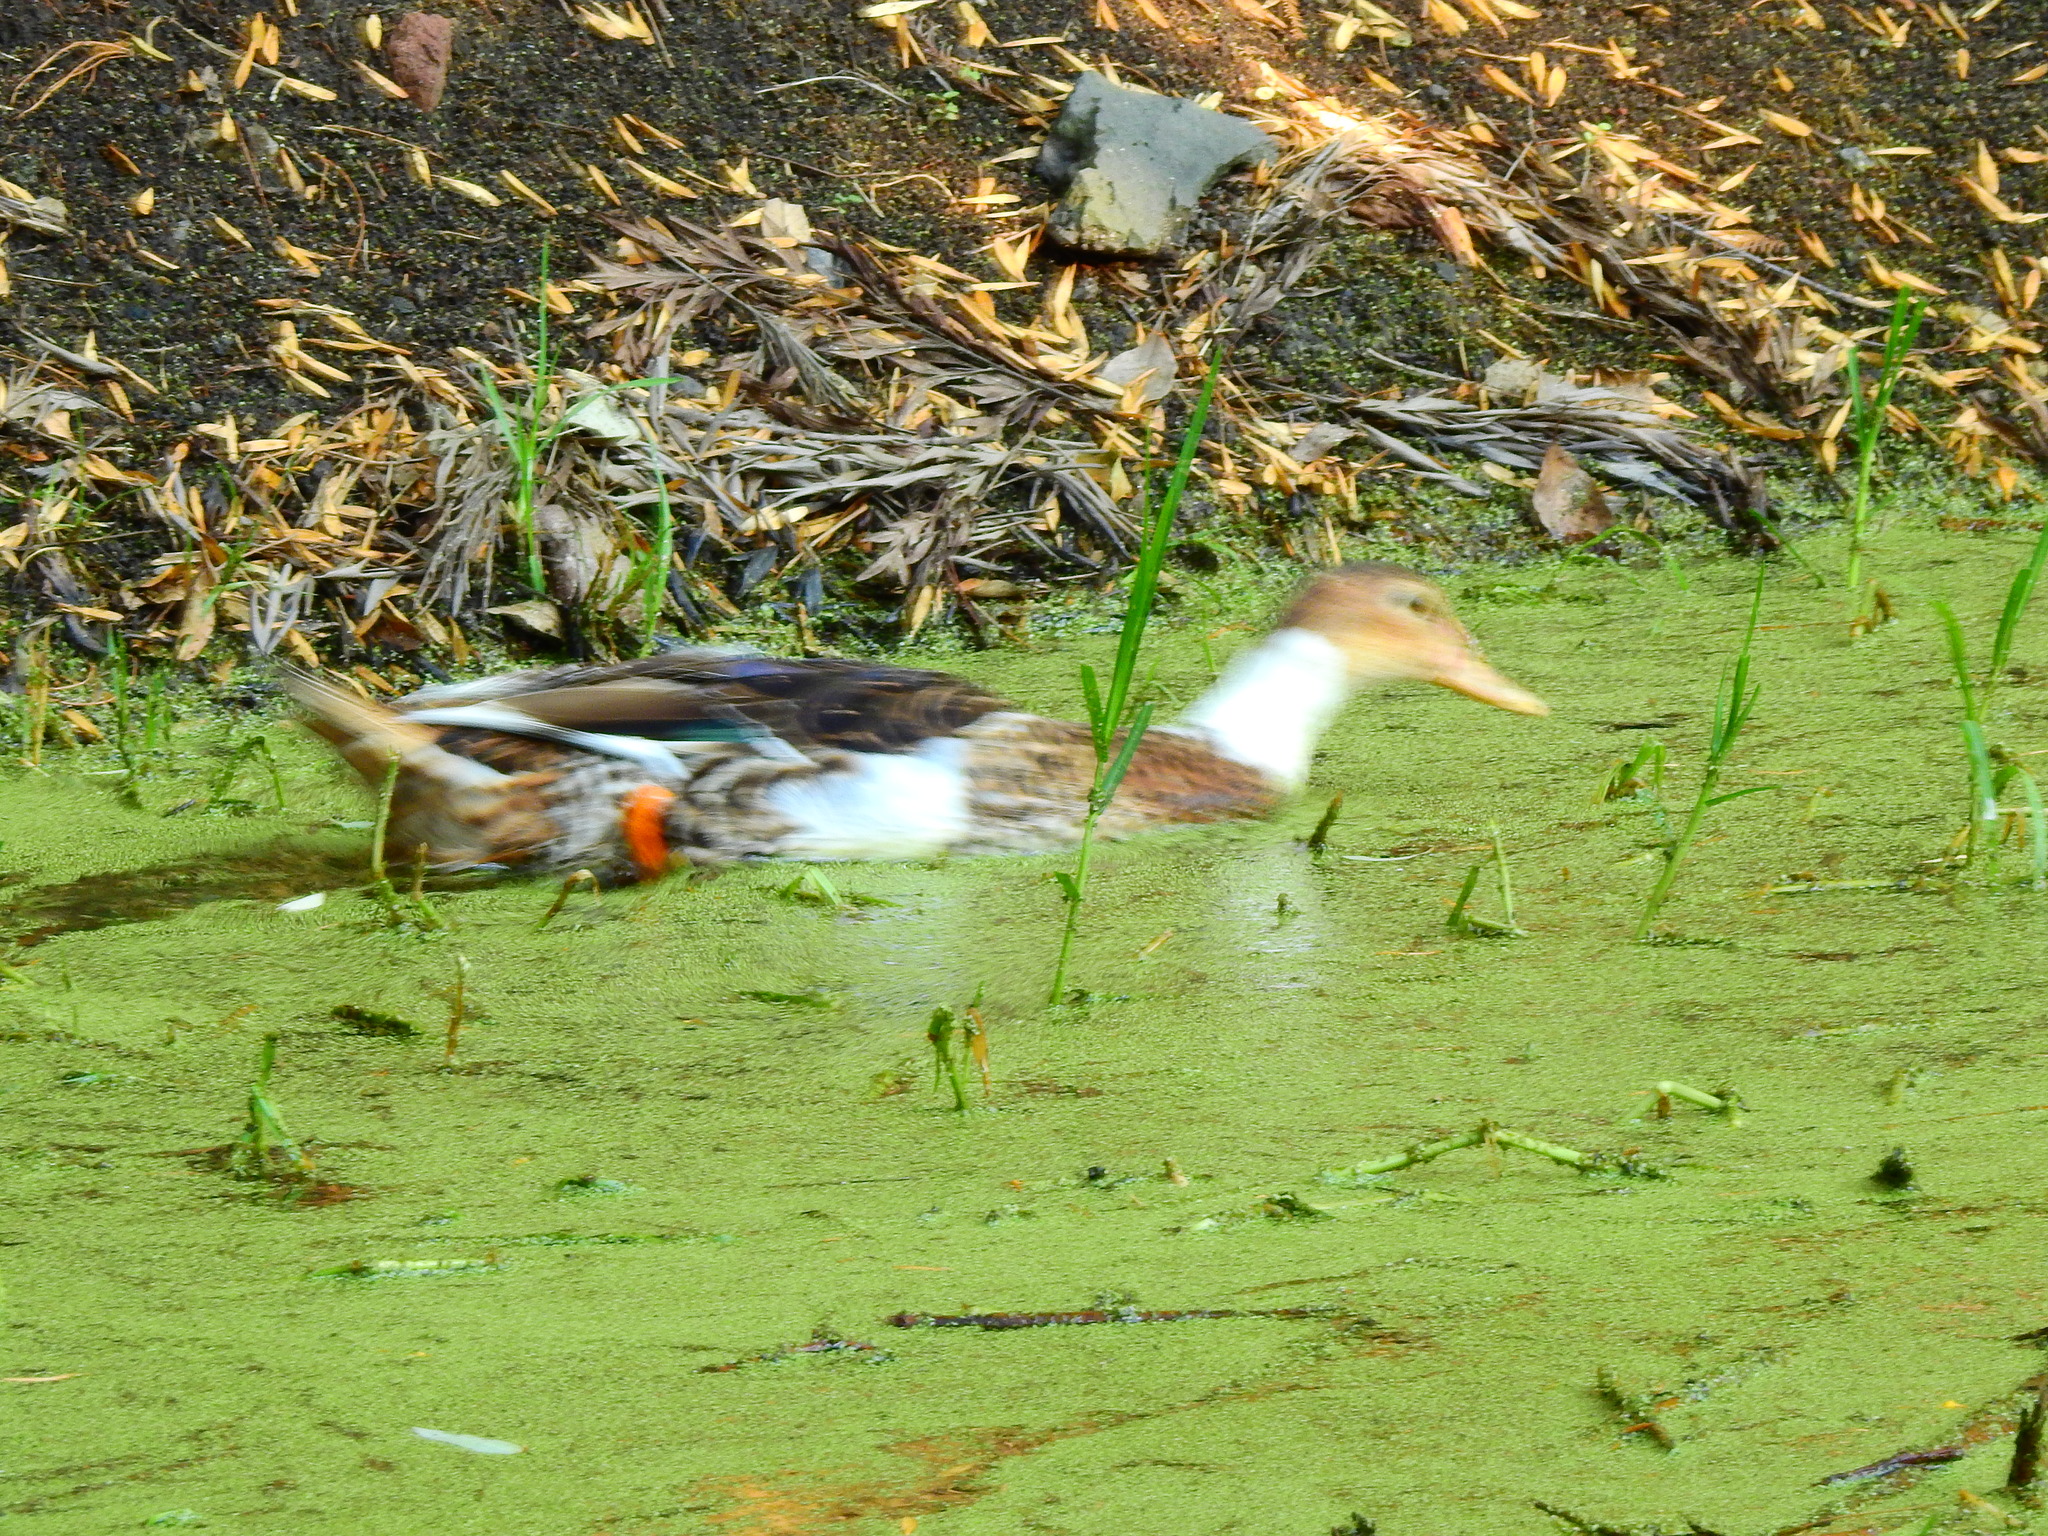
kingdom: Animalia
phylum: Chordata
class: Aves
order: Anseriformes
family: Anatidae
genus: Anas
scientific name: Anas platyrhynchos
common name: Mallard
